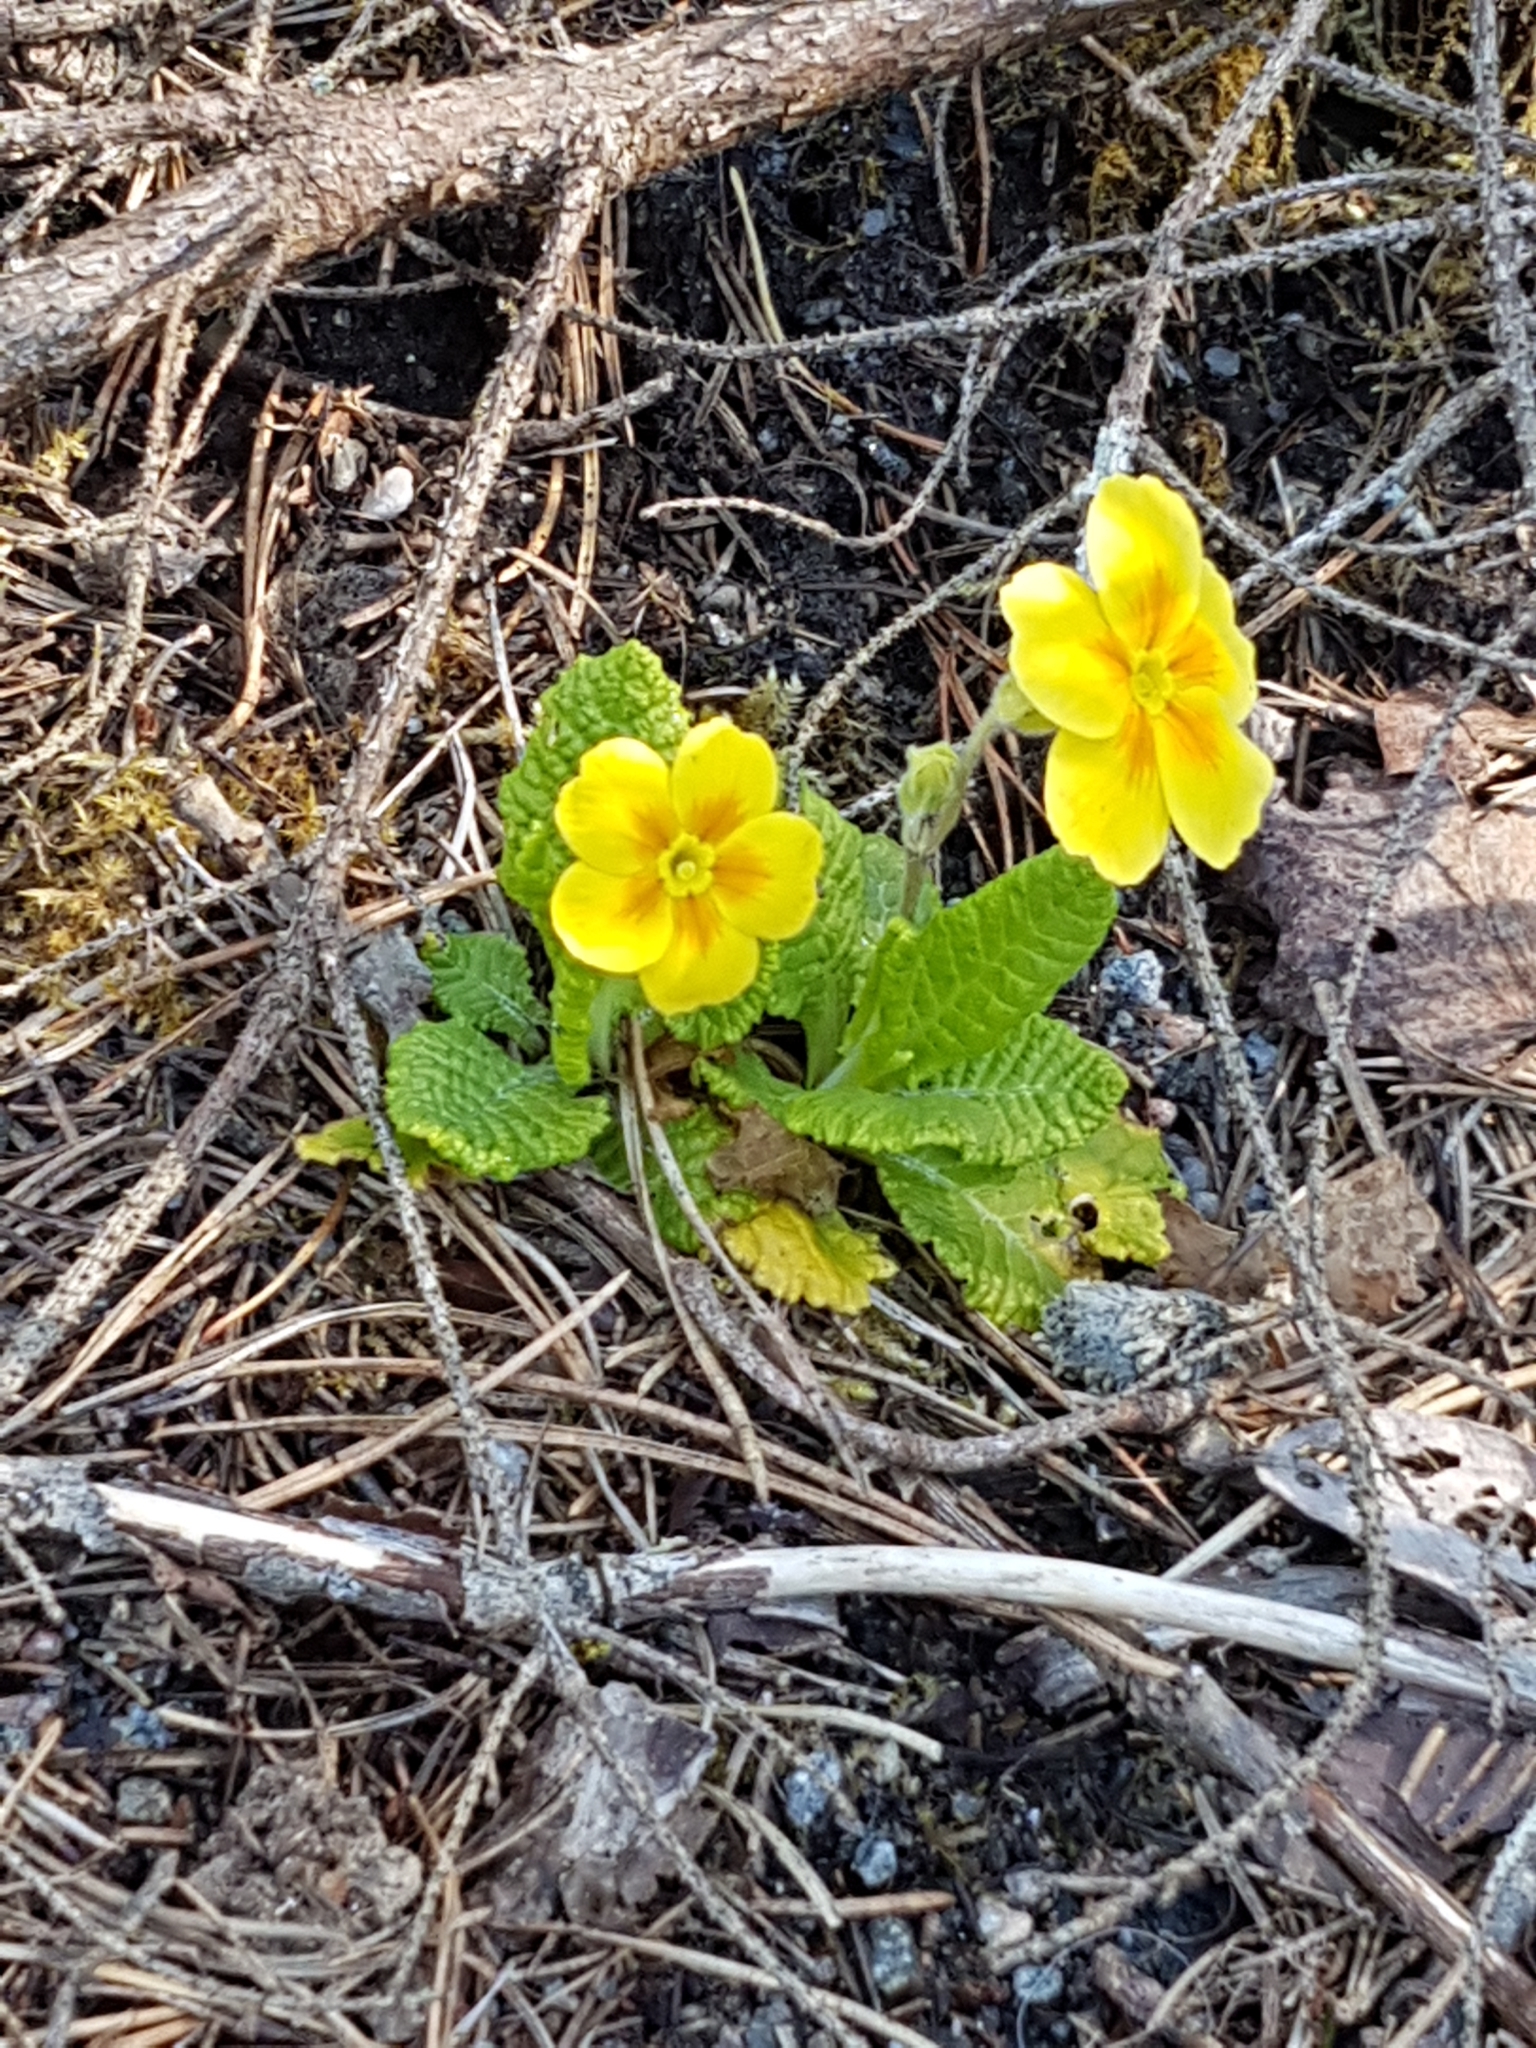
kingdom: Plantae
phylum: Tracheophyta
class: Magnoliopsida
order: Ericales
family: Primulaceae
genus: Primula
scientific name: Primula vulgaris
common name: Primrose
